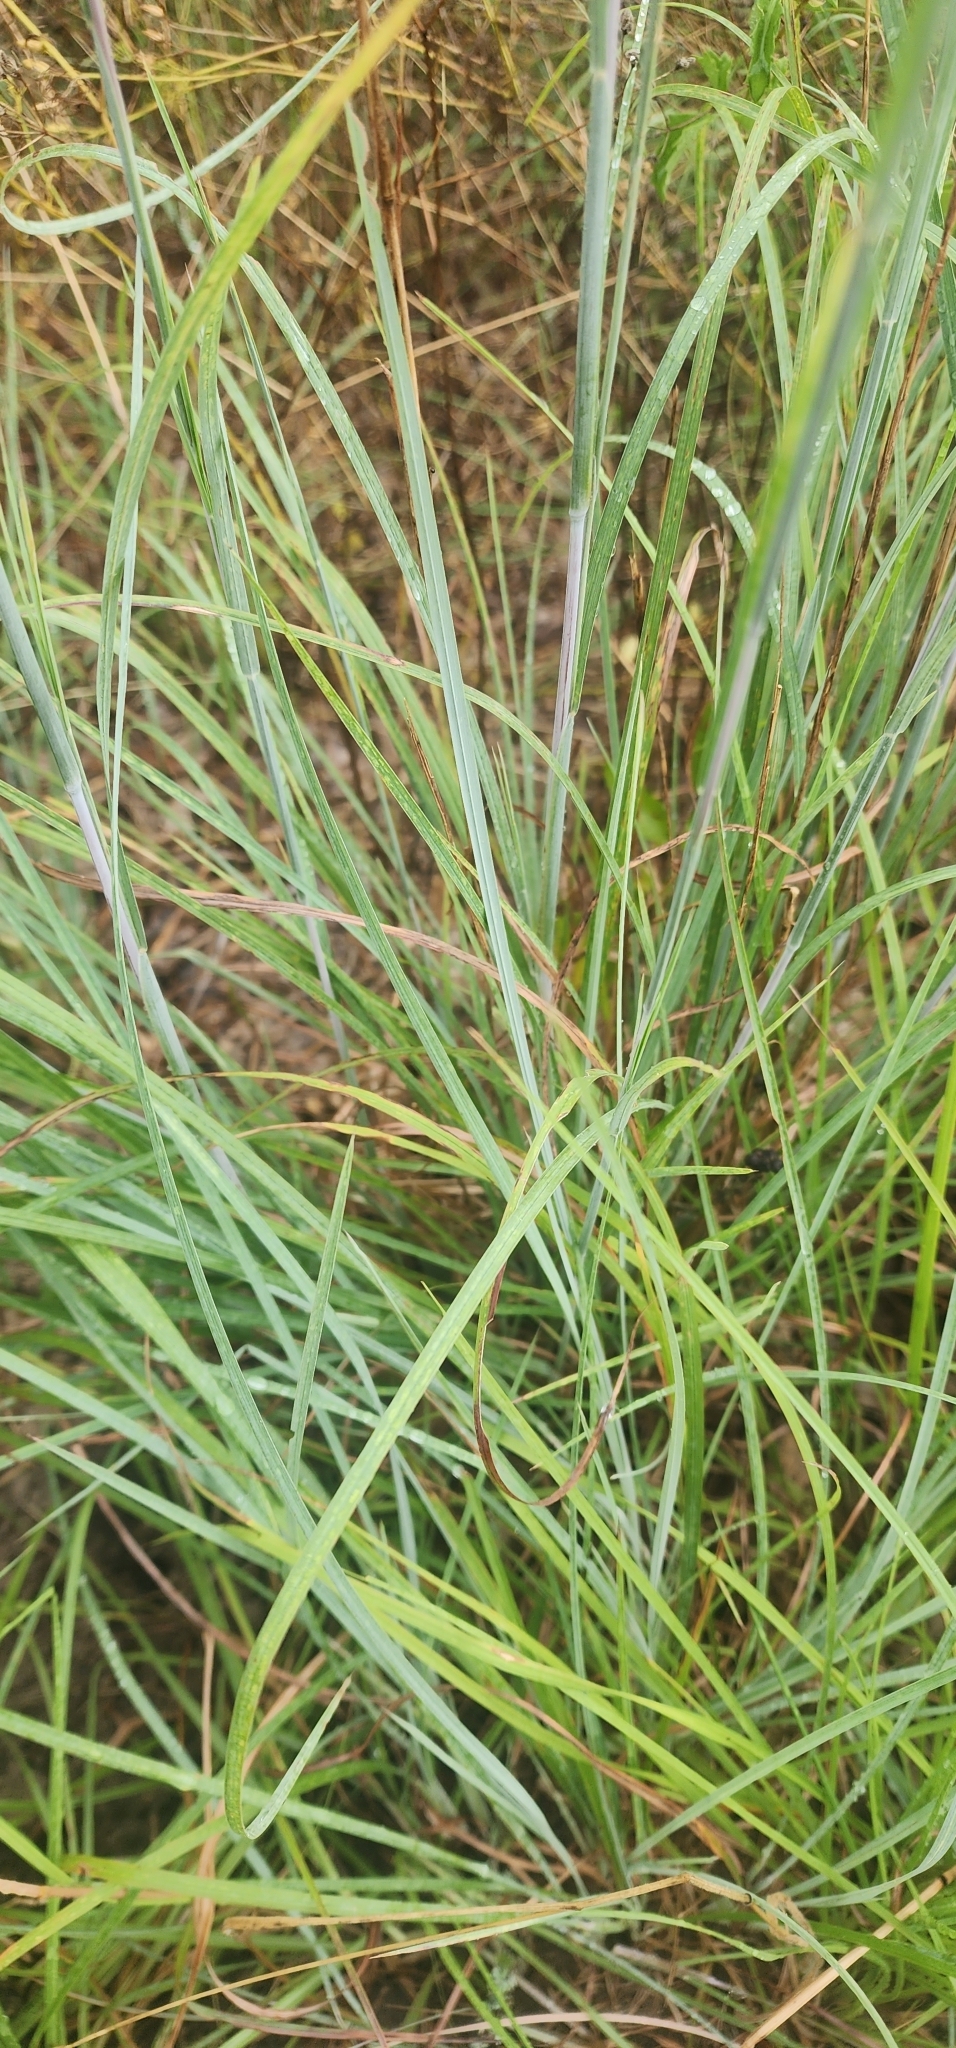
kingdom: Plantae
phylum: Tracheophyta
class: Liliopsida
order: Poales
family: Poaceae
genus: Schizachyrium
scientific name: Schizachyrium scoparium
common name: Little bluestem
